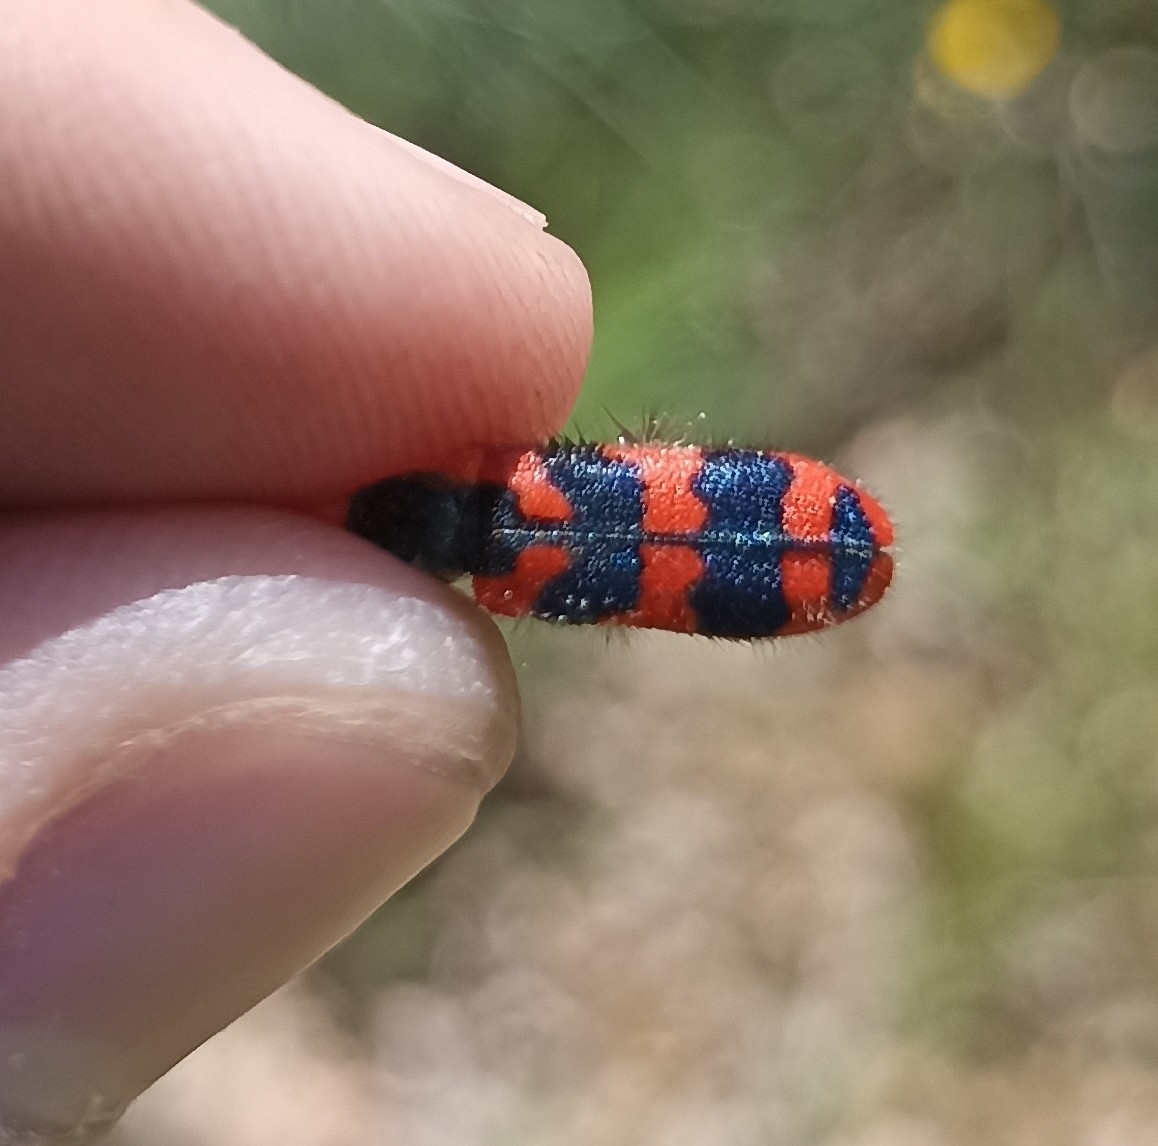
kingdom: Animalia
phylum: Arthropoda
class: Insecta
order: Coleoptera
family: Cleridae
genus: Trichodes
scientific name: Trichodes alvearius
